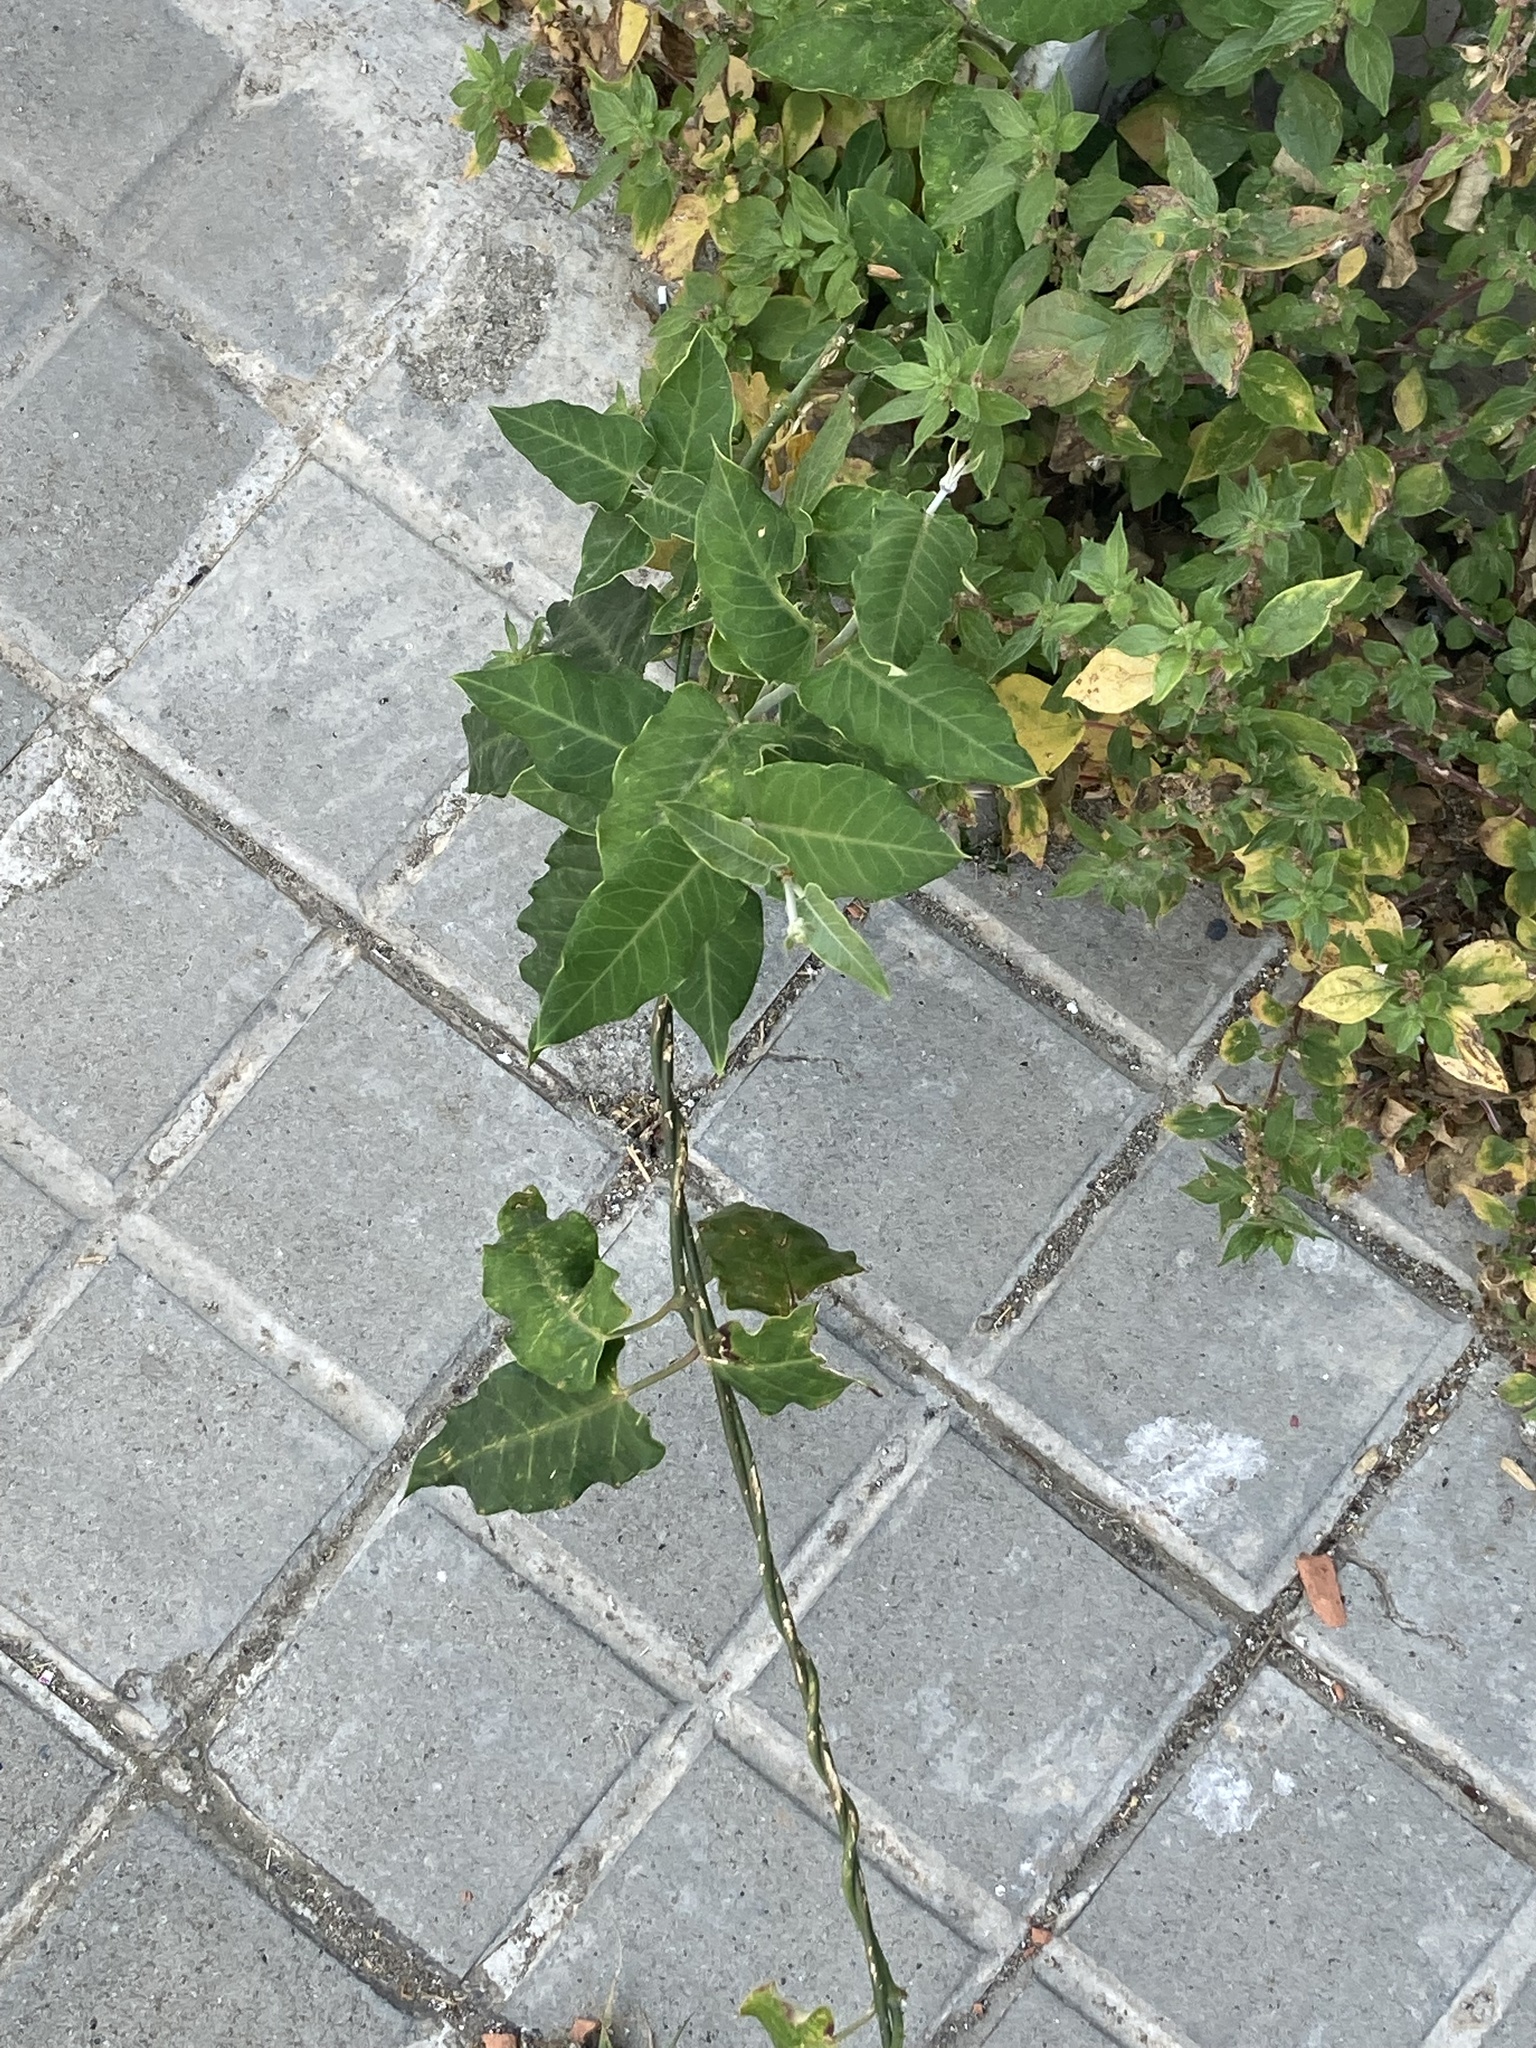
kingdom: Plantae
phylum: Tracheophyta
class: Magnoliopsida
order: Gentianales
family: Apocynaceae
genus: Araujia
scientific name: Araujia sericifera
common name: White bladderflower
